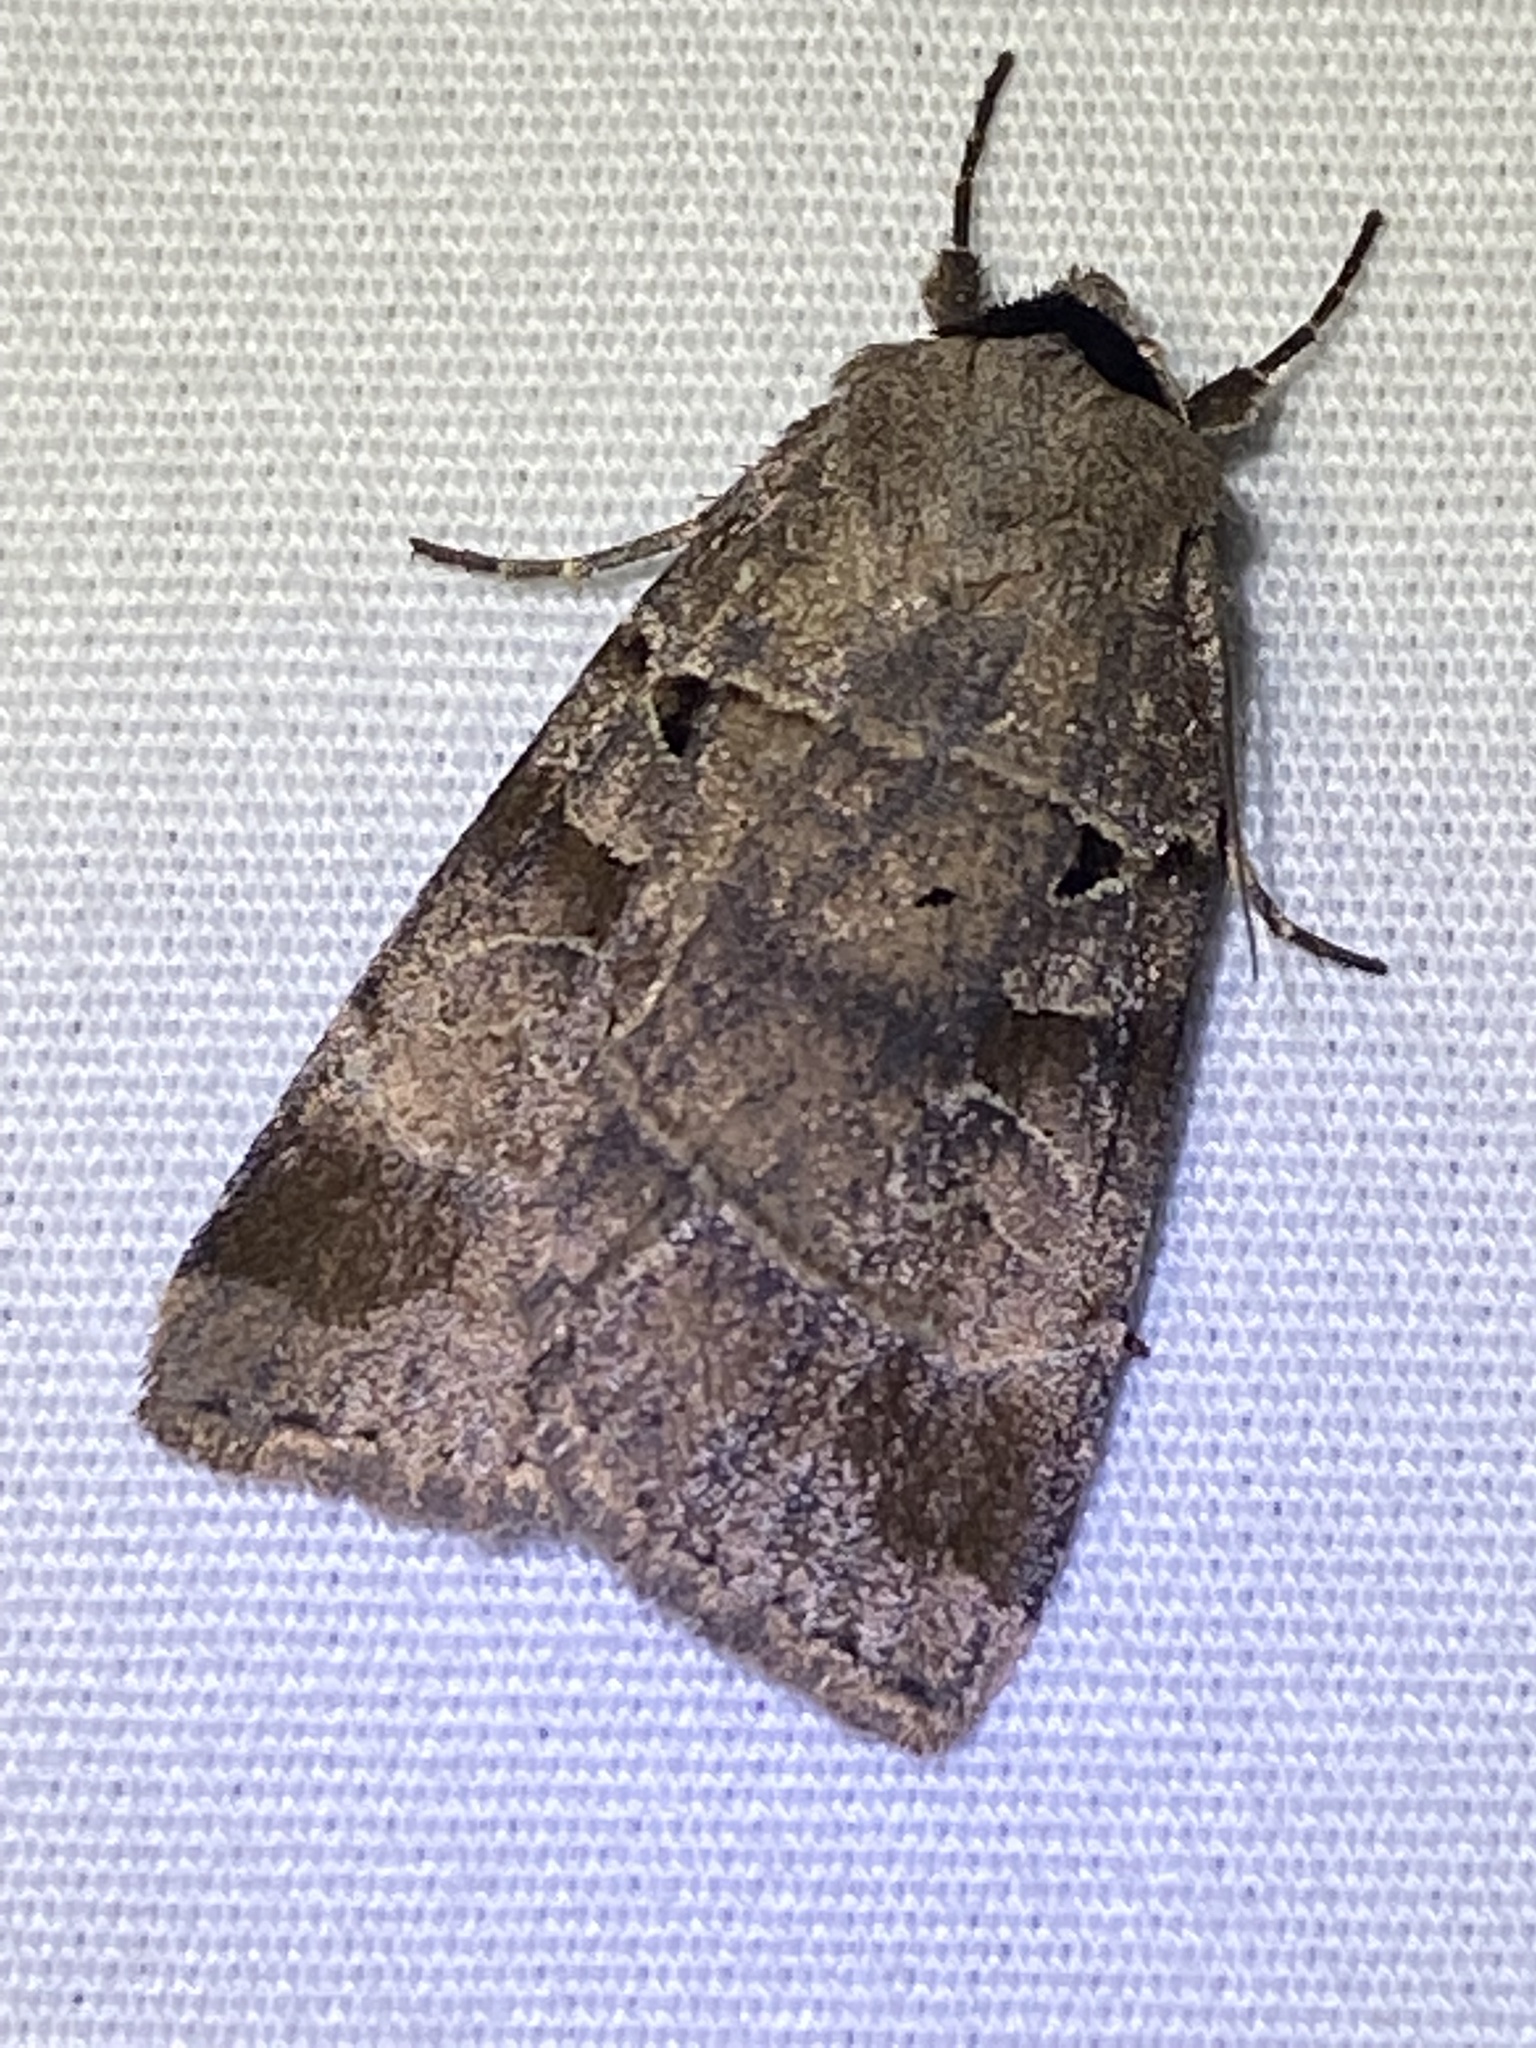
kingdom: Animalia
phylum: Arthropoda
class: Insecta
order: Lepidoptera
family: Noctuidae
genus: Agnorisma
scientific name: Agnorisma badinodis
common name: Pale-banded dart
